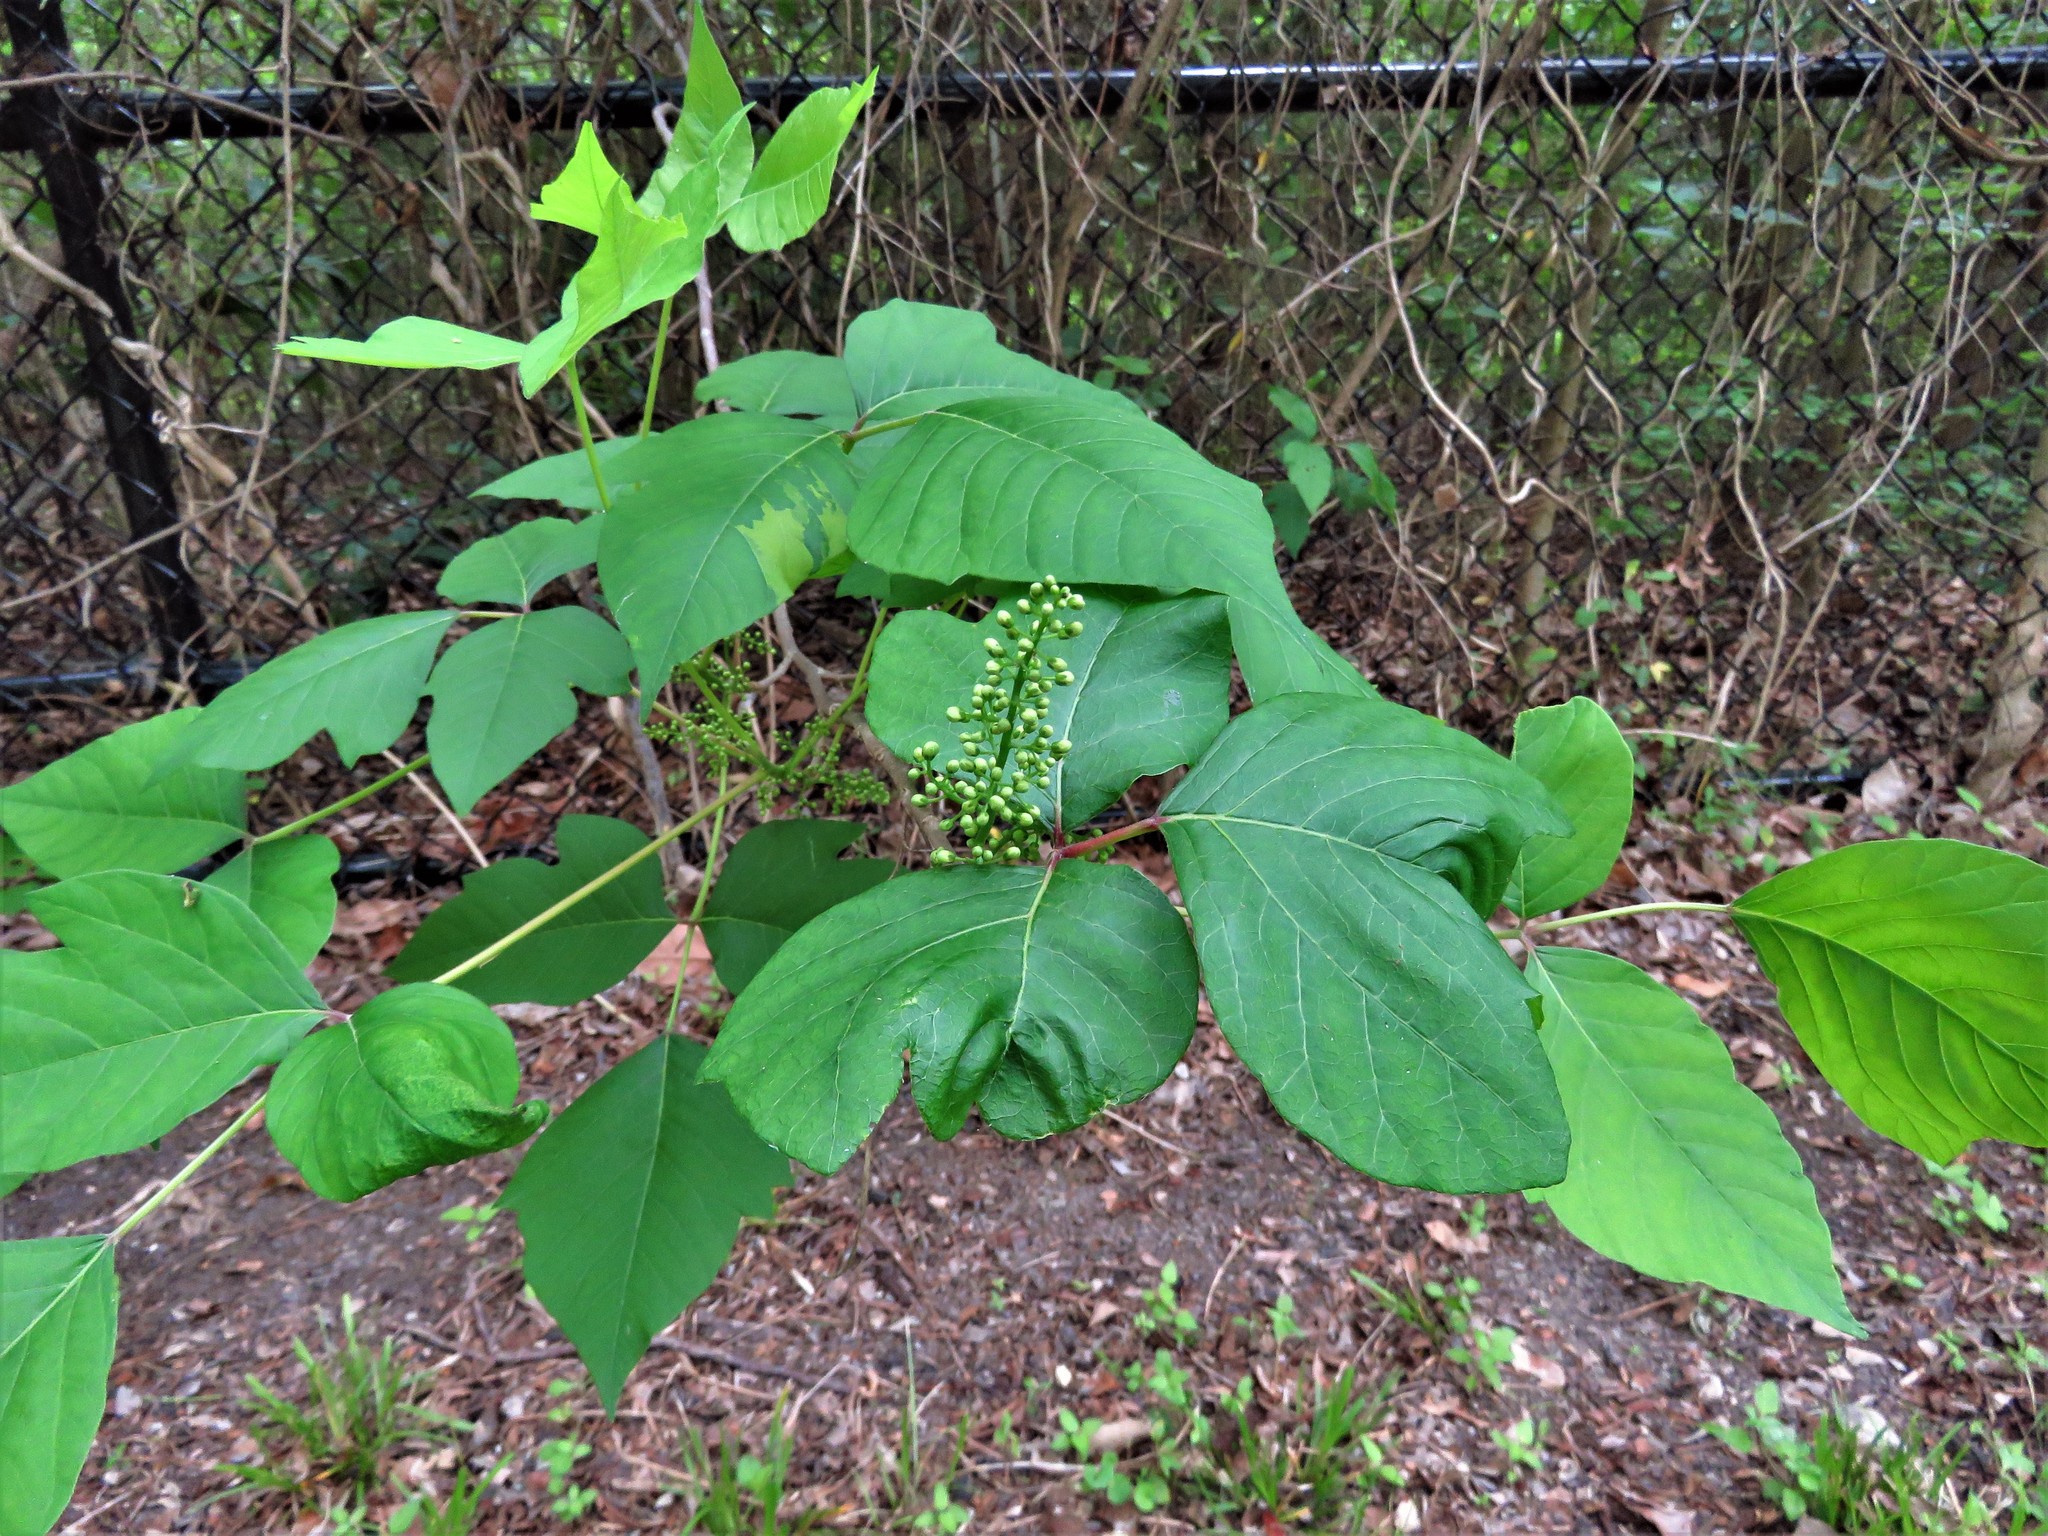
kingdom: Plantae
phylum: Tracheophyta
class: Magnoliopsida
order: Sapindales
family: Anacardiaceae
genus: Toxicodendron
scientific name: Toxicodendron radicans
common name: Poison ivy
